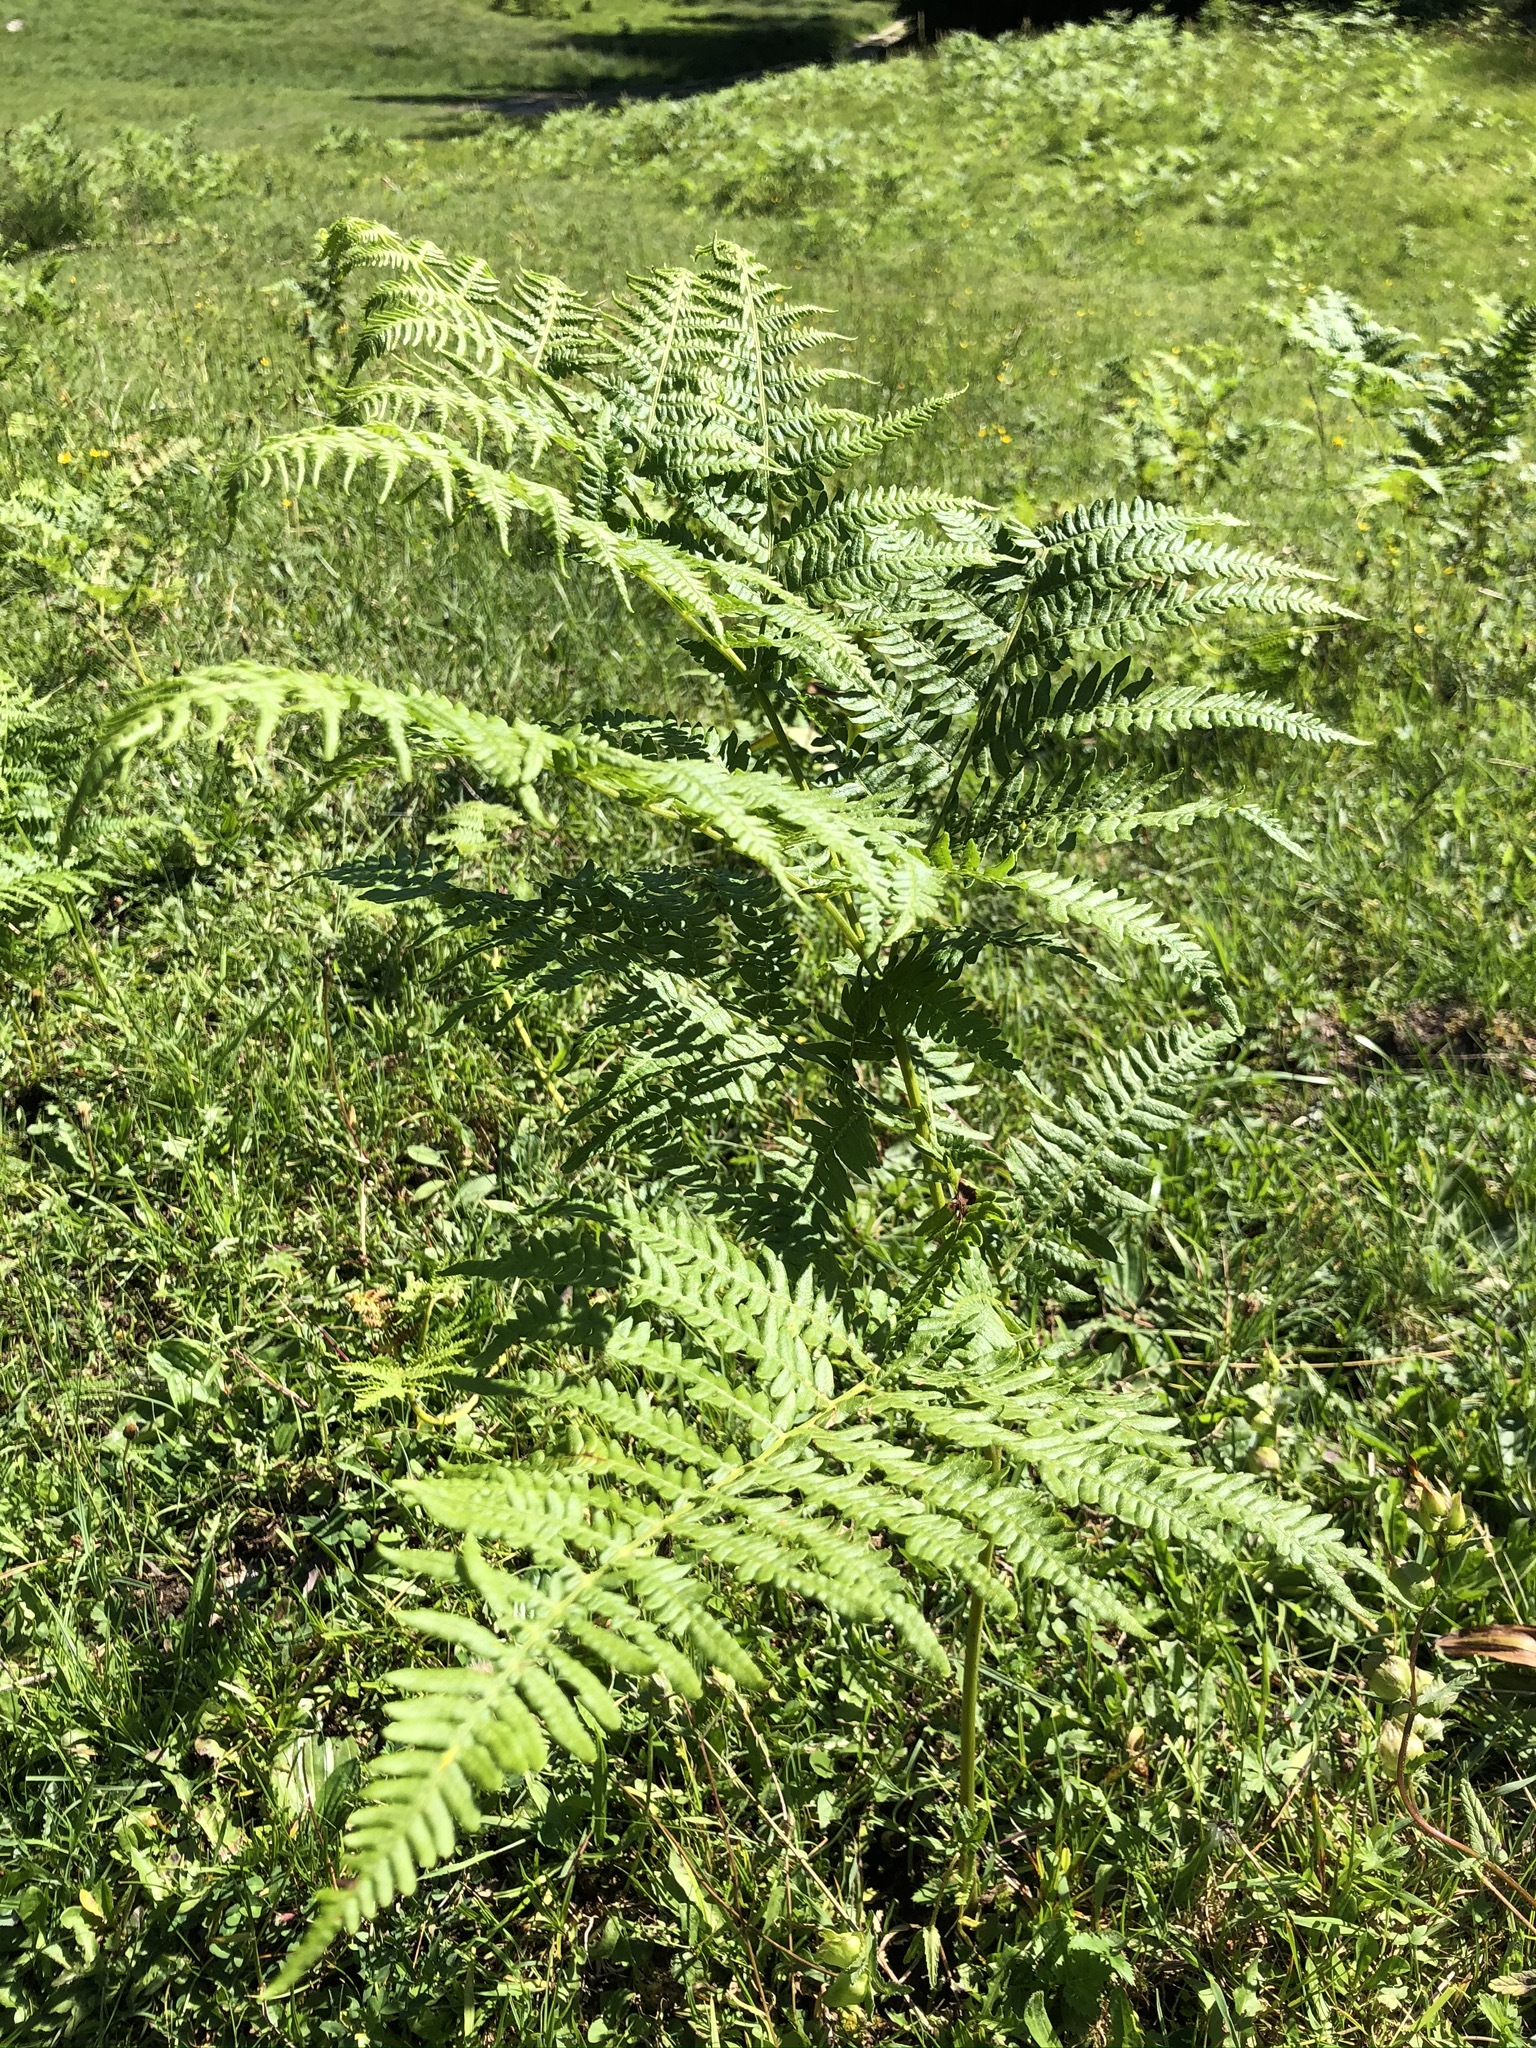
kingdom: Plantae
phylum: Tracheophyta
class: Polypodiopsida
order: Polypodiales
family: Dennstaedtiaceae
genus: Pteridium
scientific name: Pteridium aquilinum
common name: Bracken
